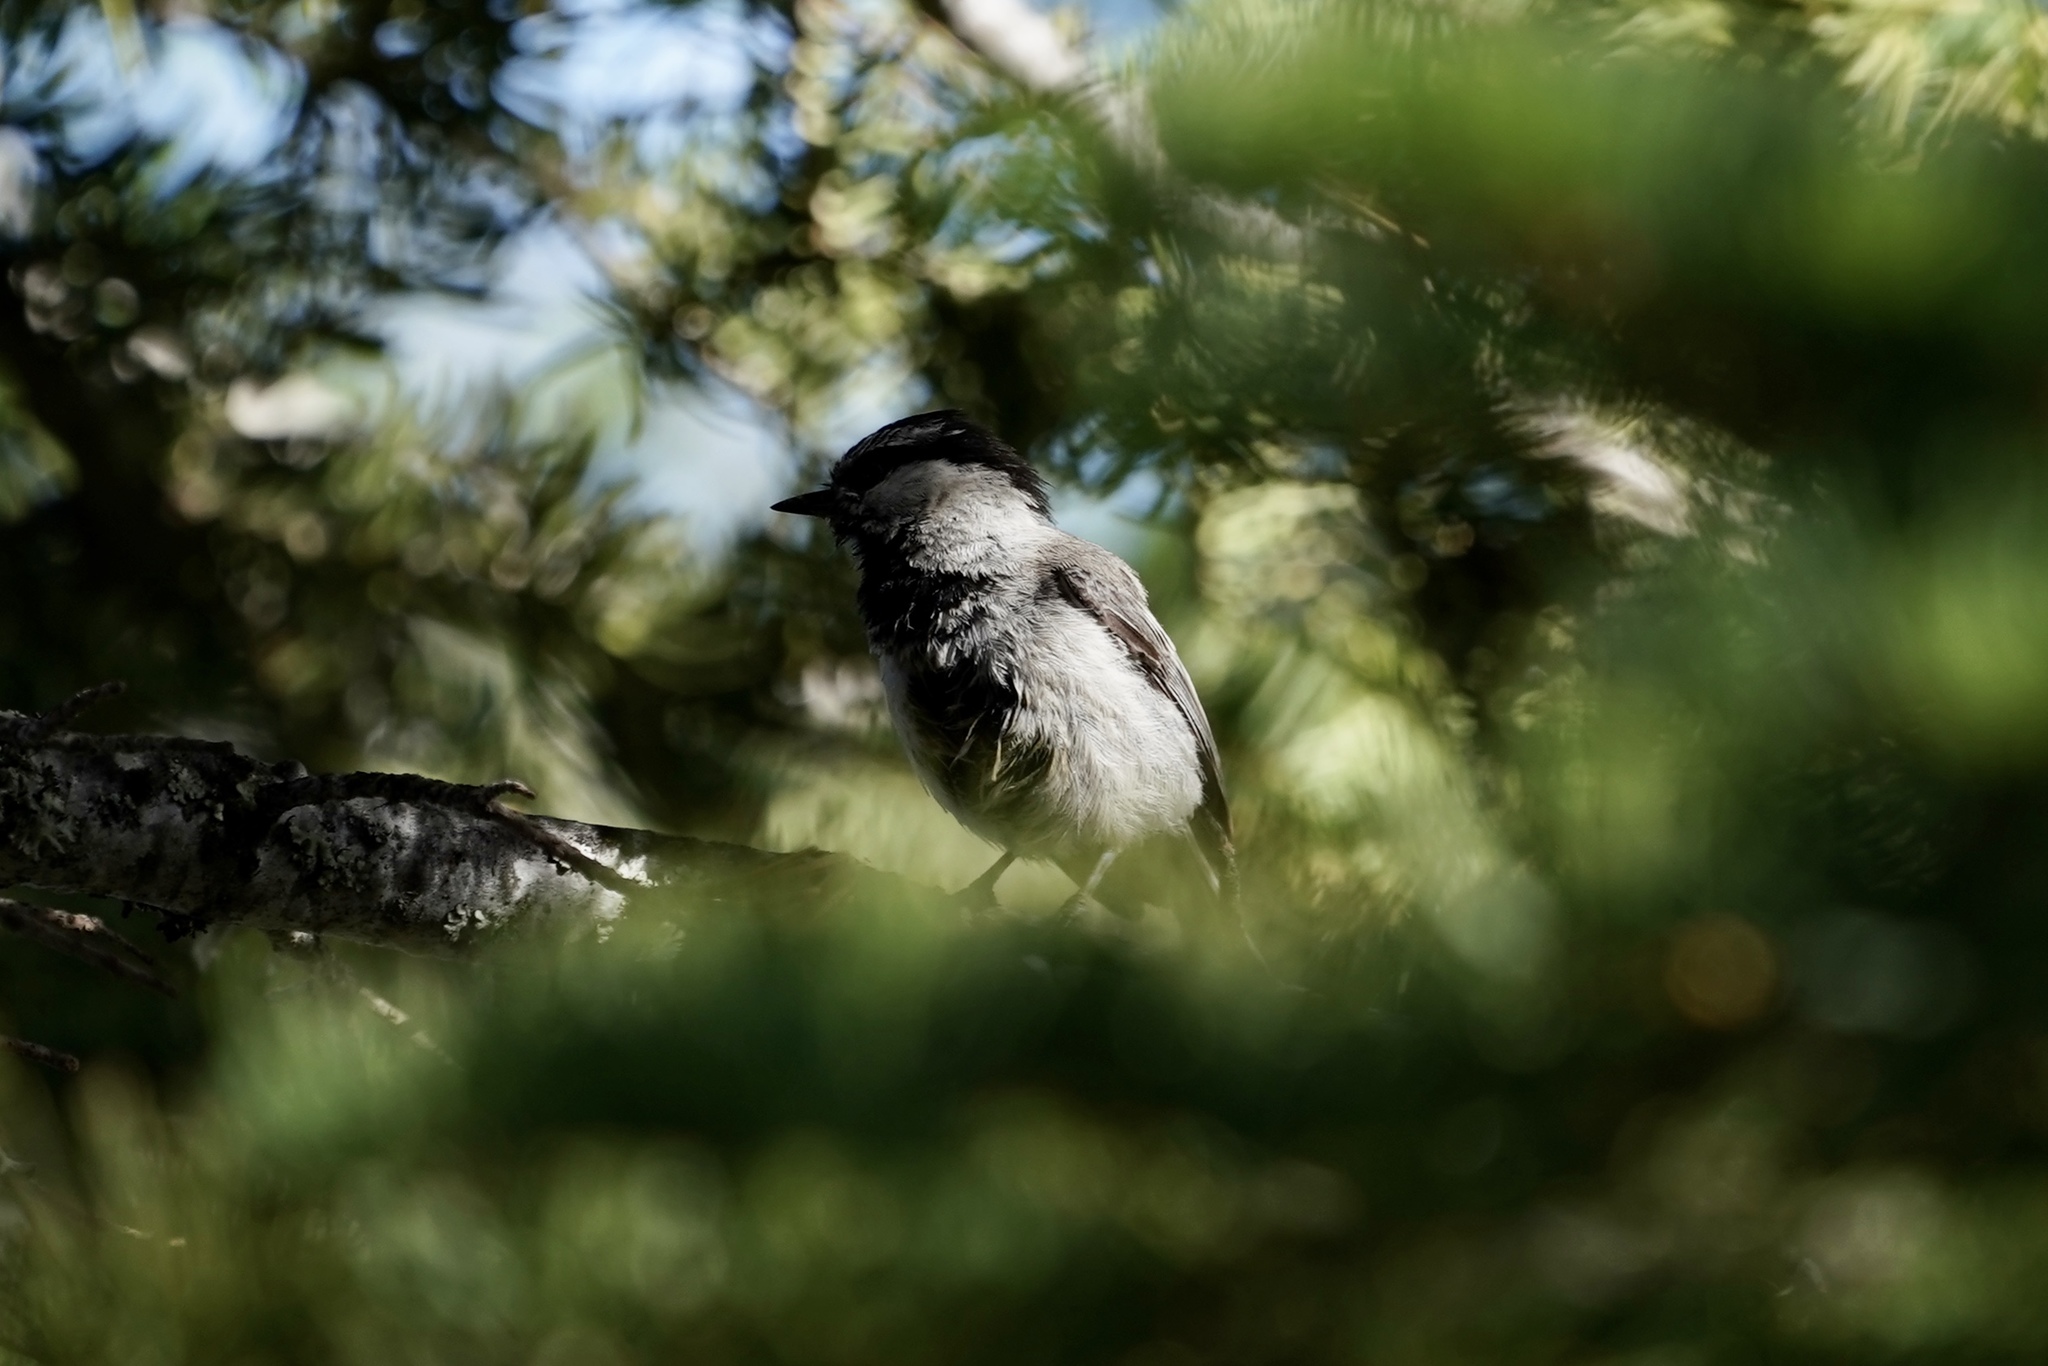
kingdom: Animalia
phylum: Chordata
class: Aves
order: Passeriformes
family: Paridae
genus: Poecile
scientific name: Poecile gambeli
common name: Mountain chickadee
